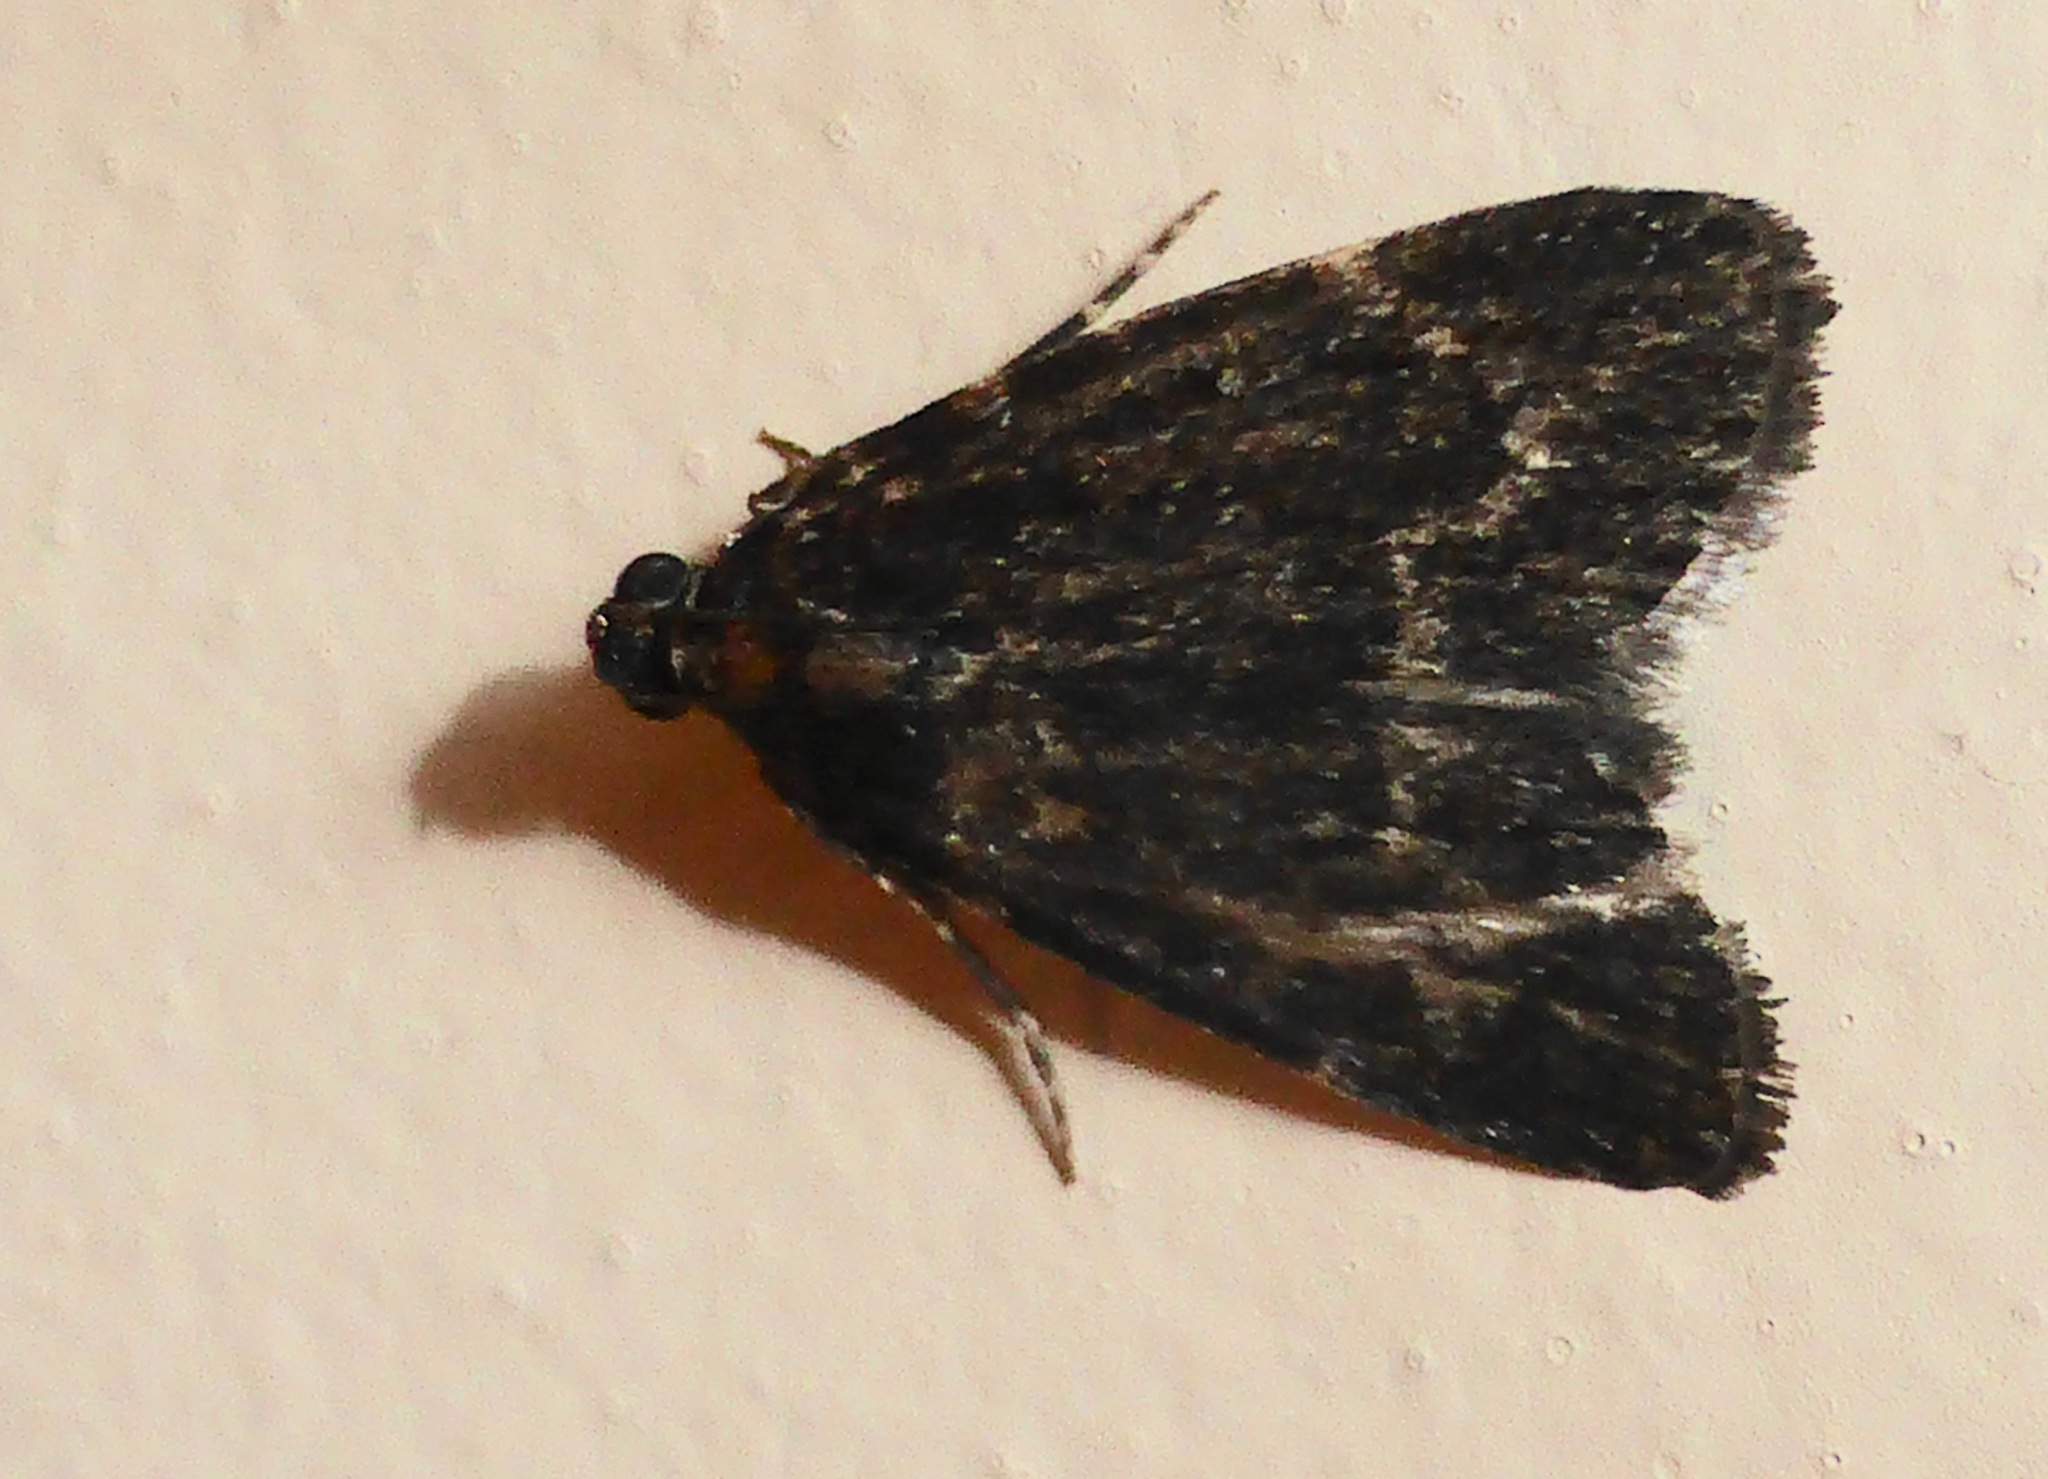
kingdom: Animalia
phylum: Arthropoda
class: Insecta
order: Lepidoptera
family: Pyralidae
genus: Stericta
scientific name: Stericta carbonalis
